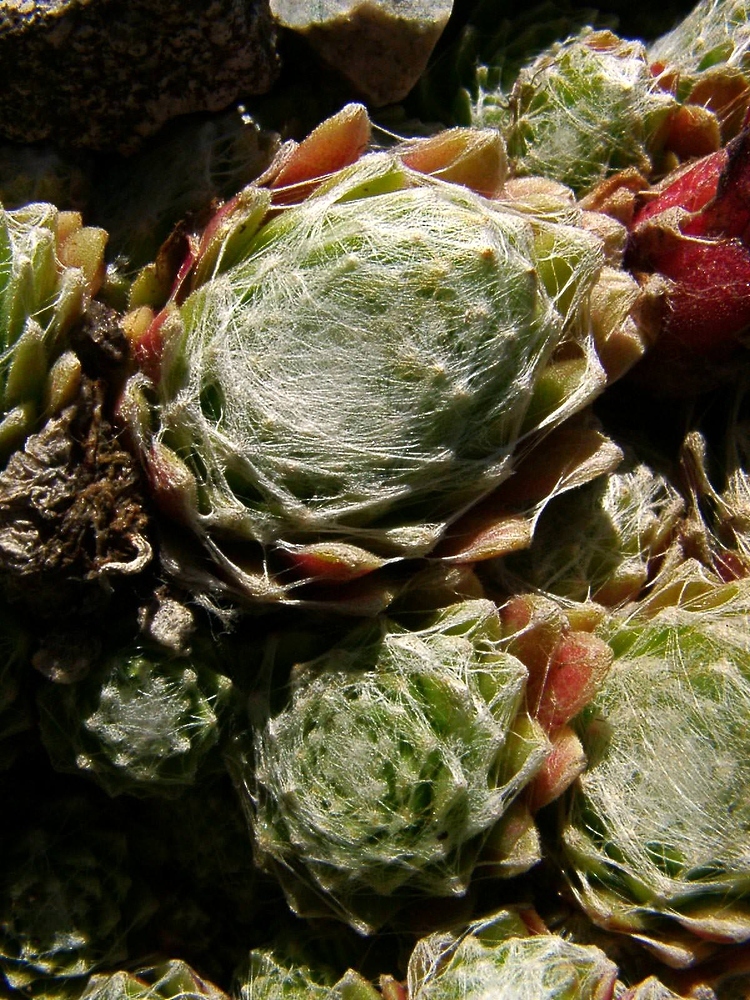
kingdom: Plantae
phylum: Tracheophyta
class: Magnoliopsida
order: Saxifragales
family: Crassulaceae
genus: Sempervivum
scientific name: Sempervivum arachnoideum
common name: Cobweb house-leek
